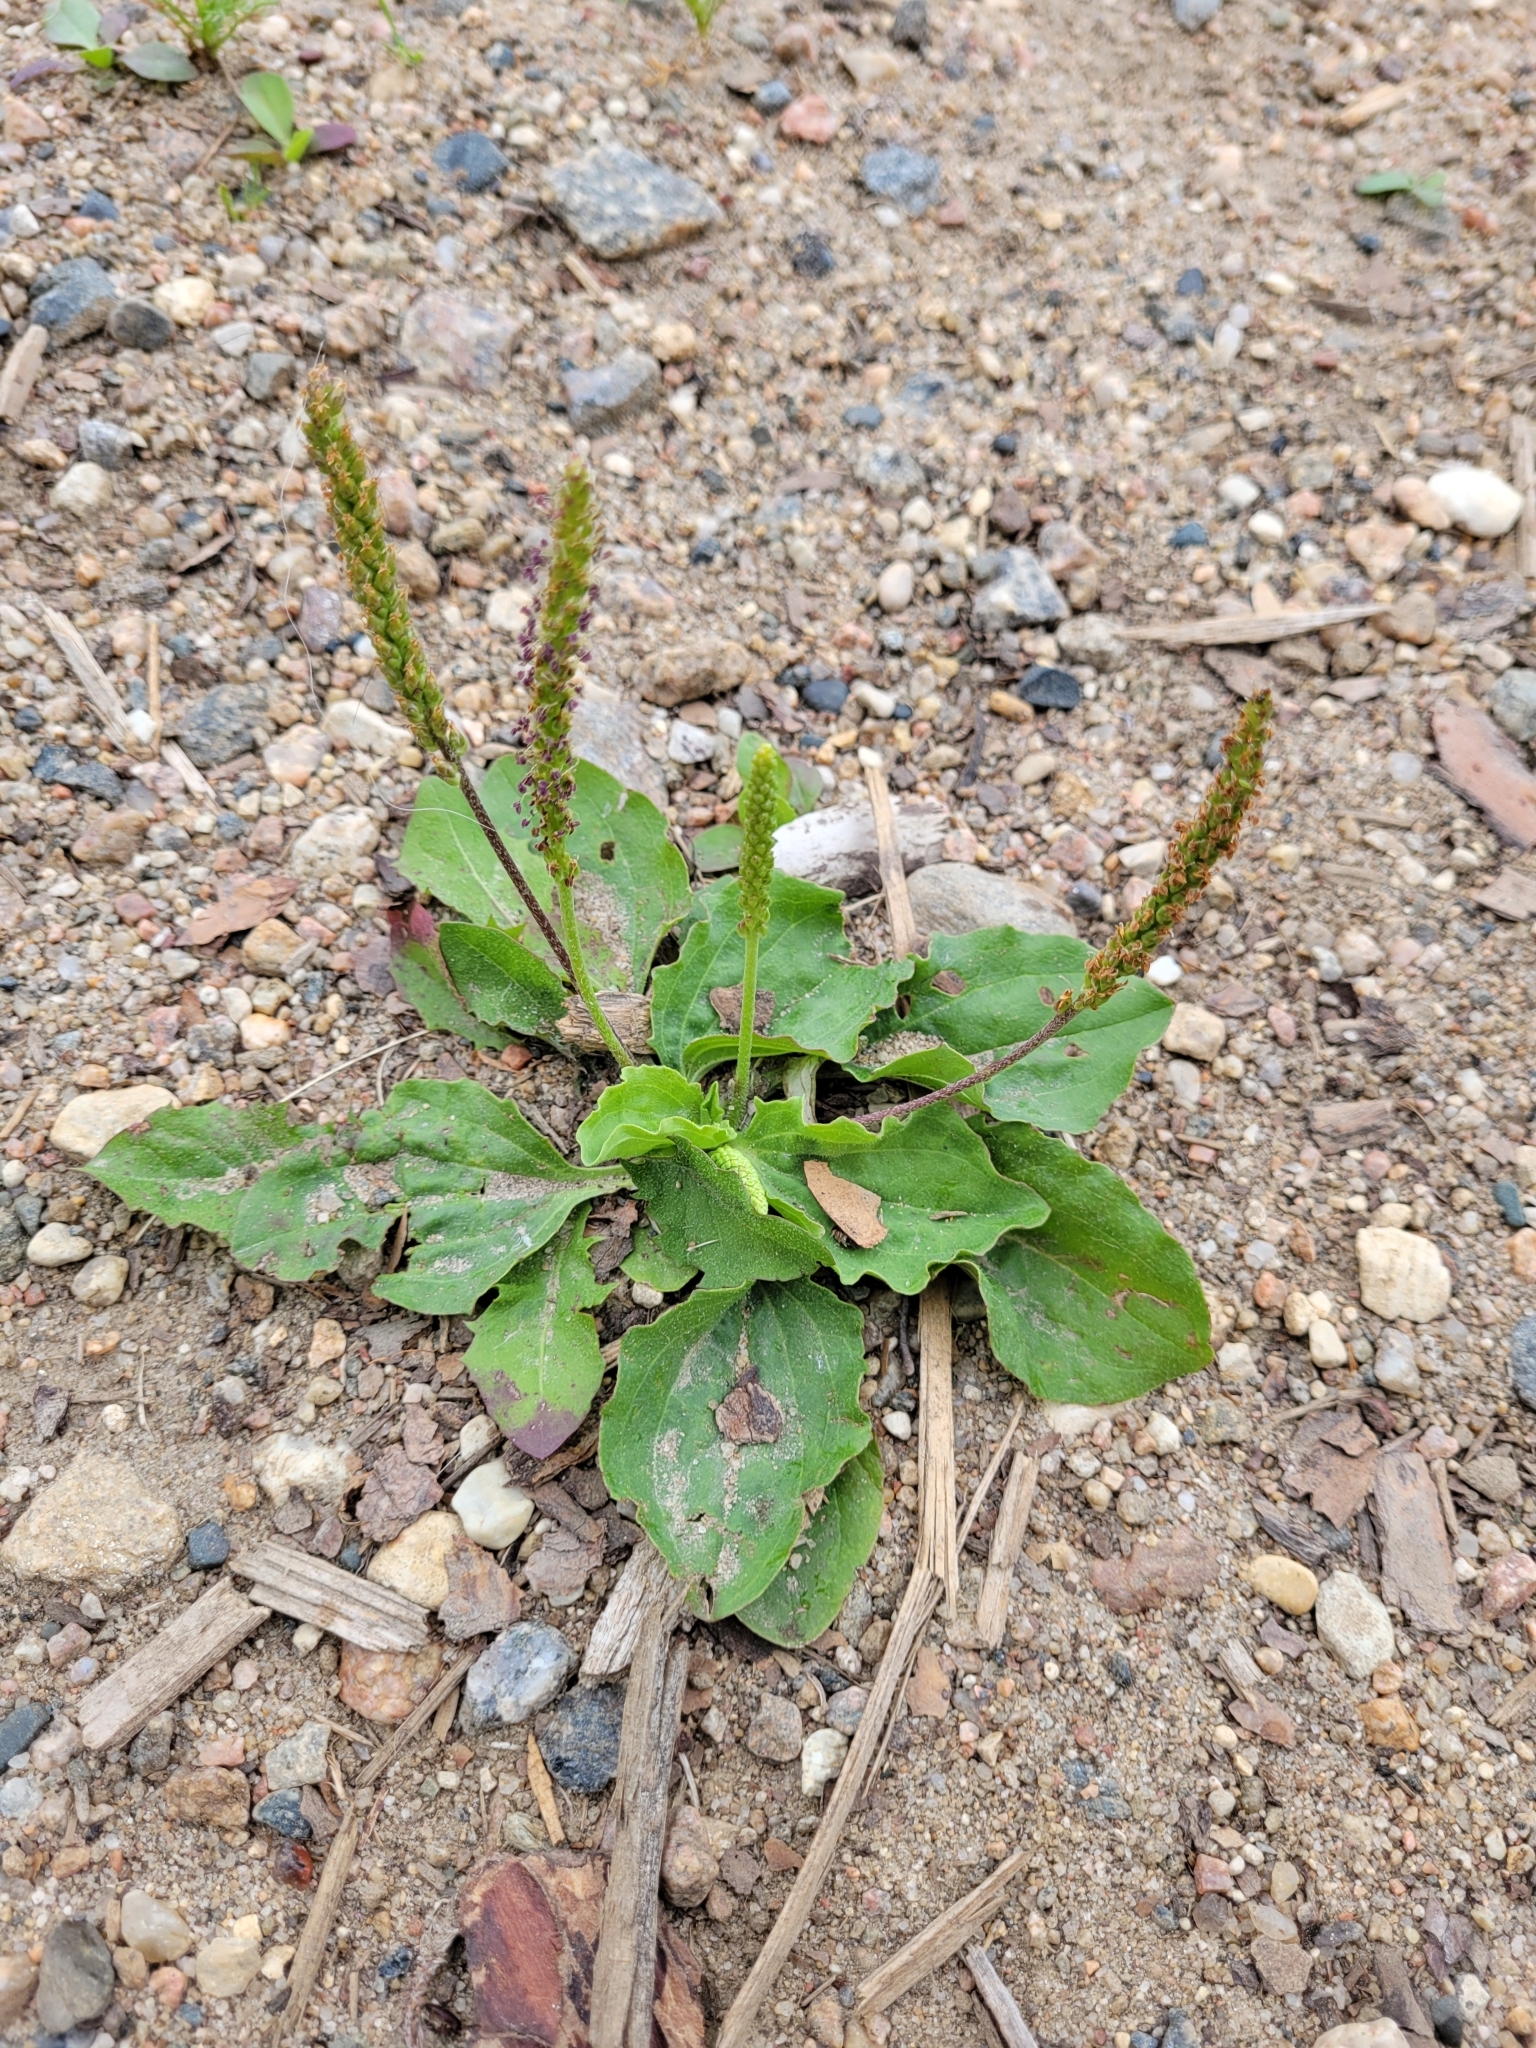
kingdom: Plantae
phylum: Tracheophyta
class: Magnoliopsida
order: Lamiales
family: Plantaginaceae
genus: Plantago
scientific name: Plantago major
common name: Common plantain
